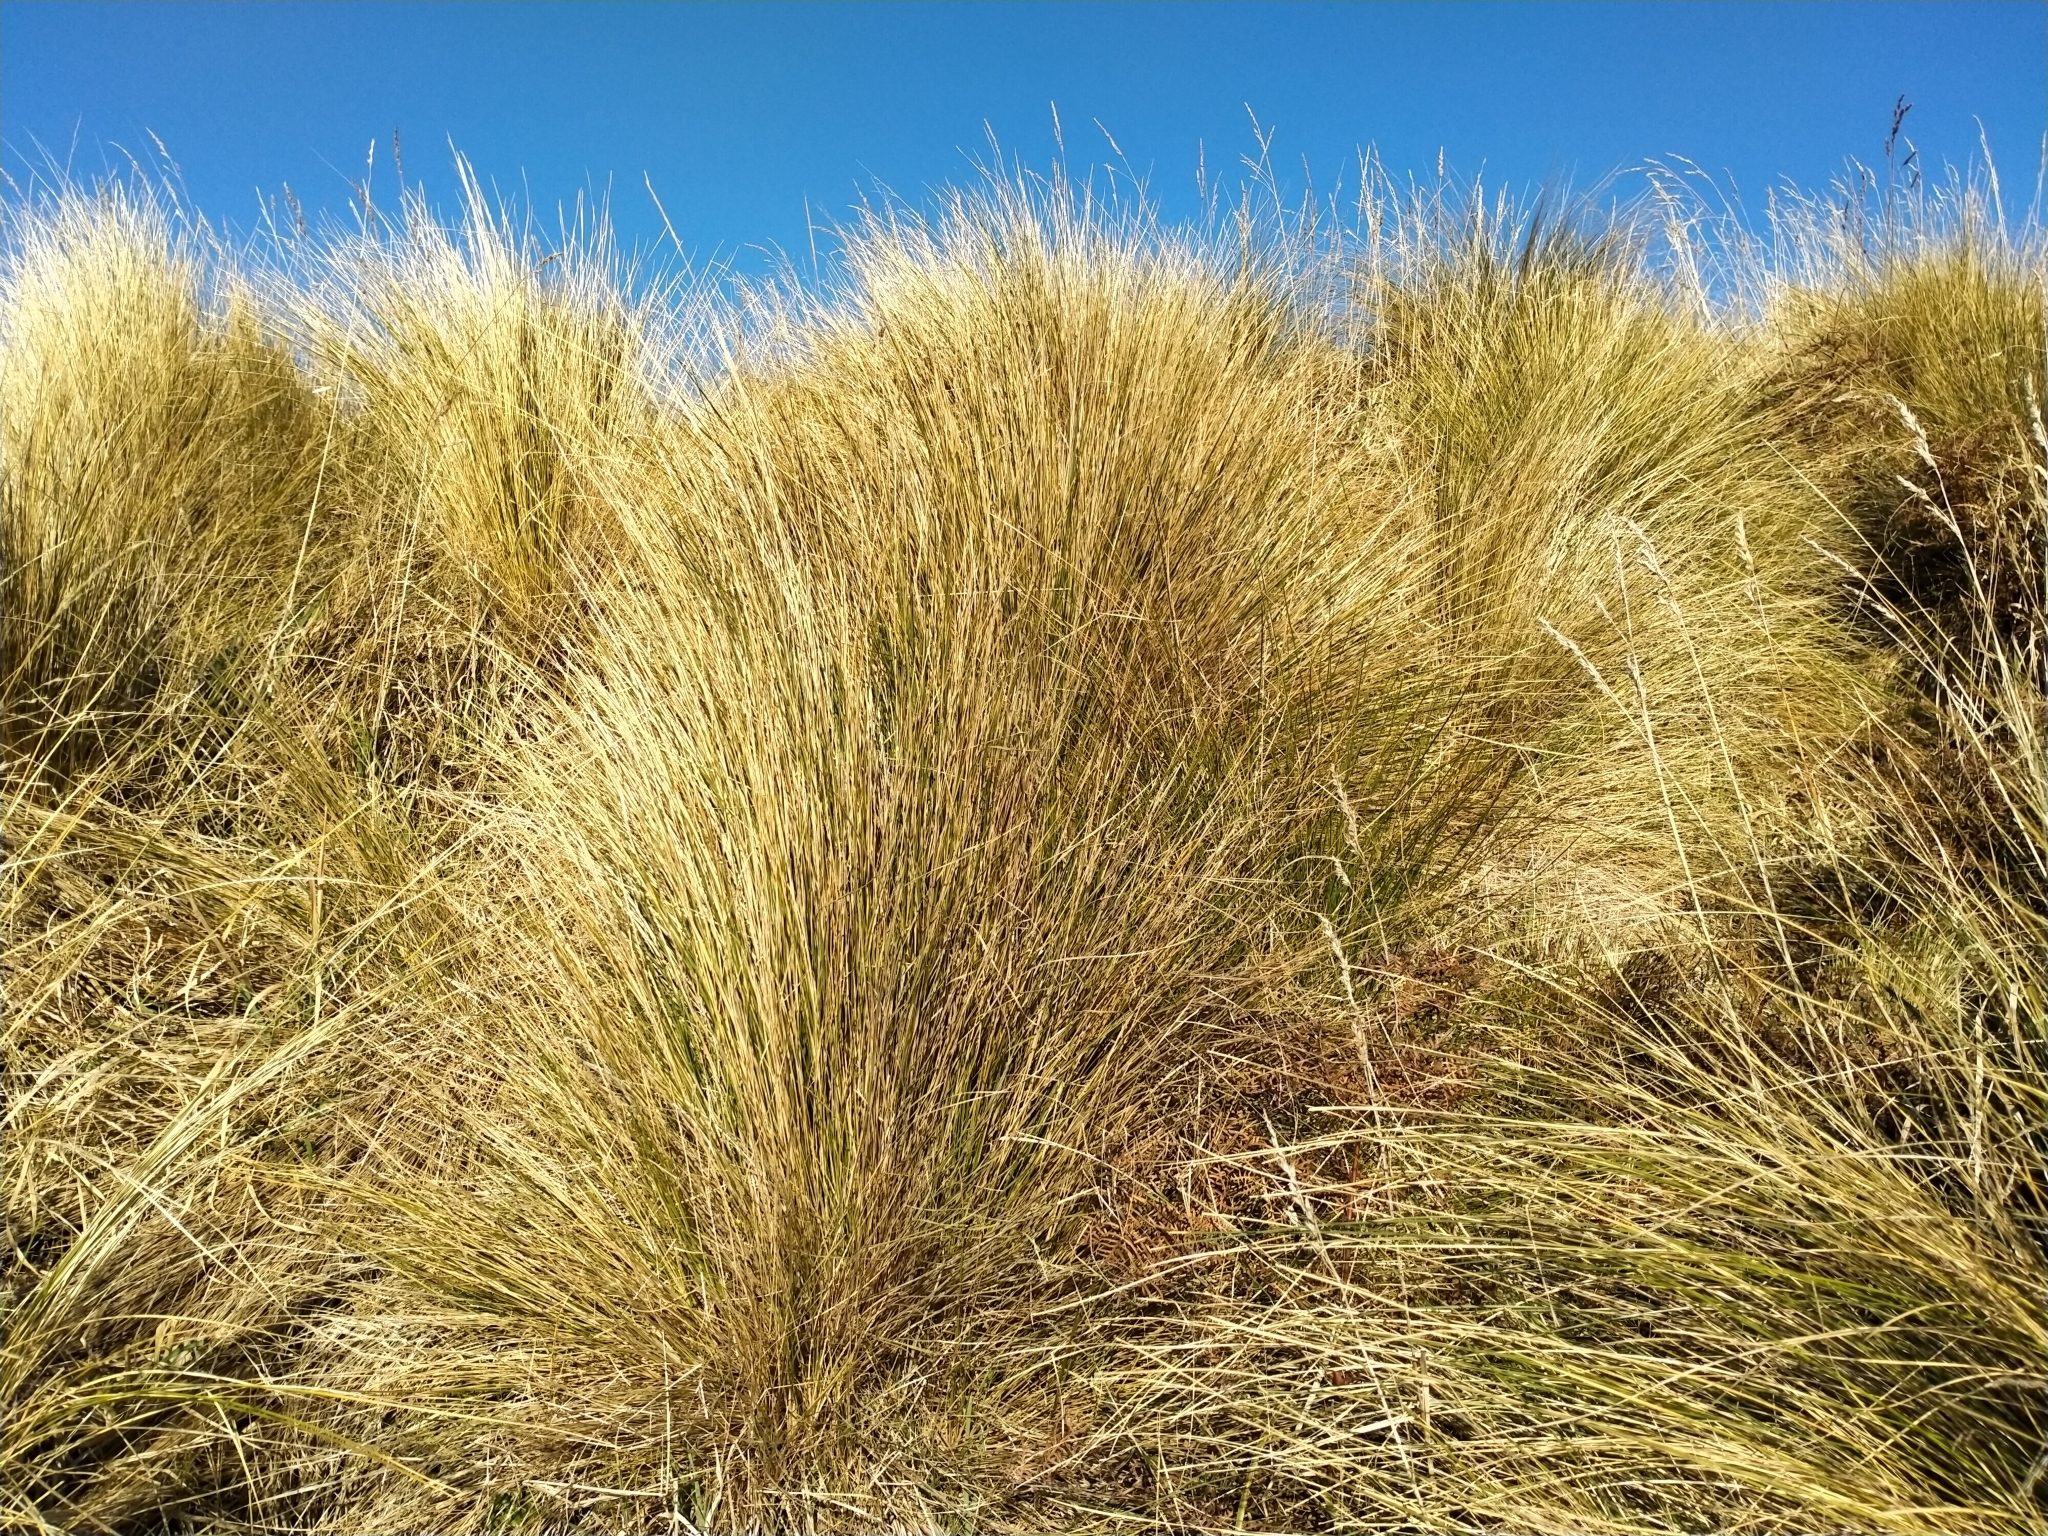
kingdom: Plantae
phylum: Tracheophyta
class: Liliopsida
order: Poales
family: Poaceae
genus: Poa
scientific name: Poa cita
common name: Silver tussock
